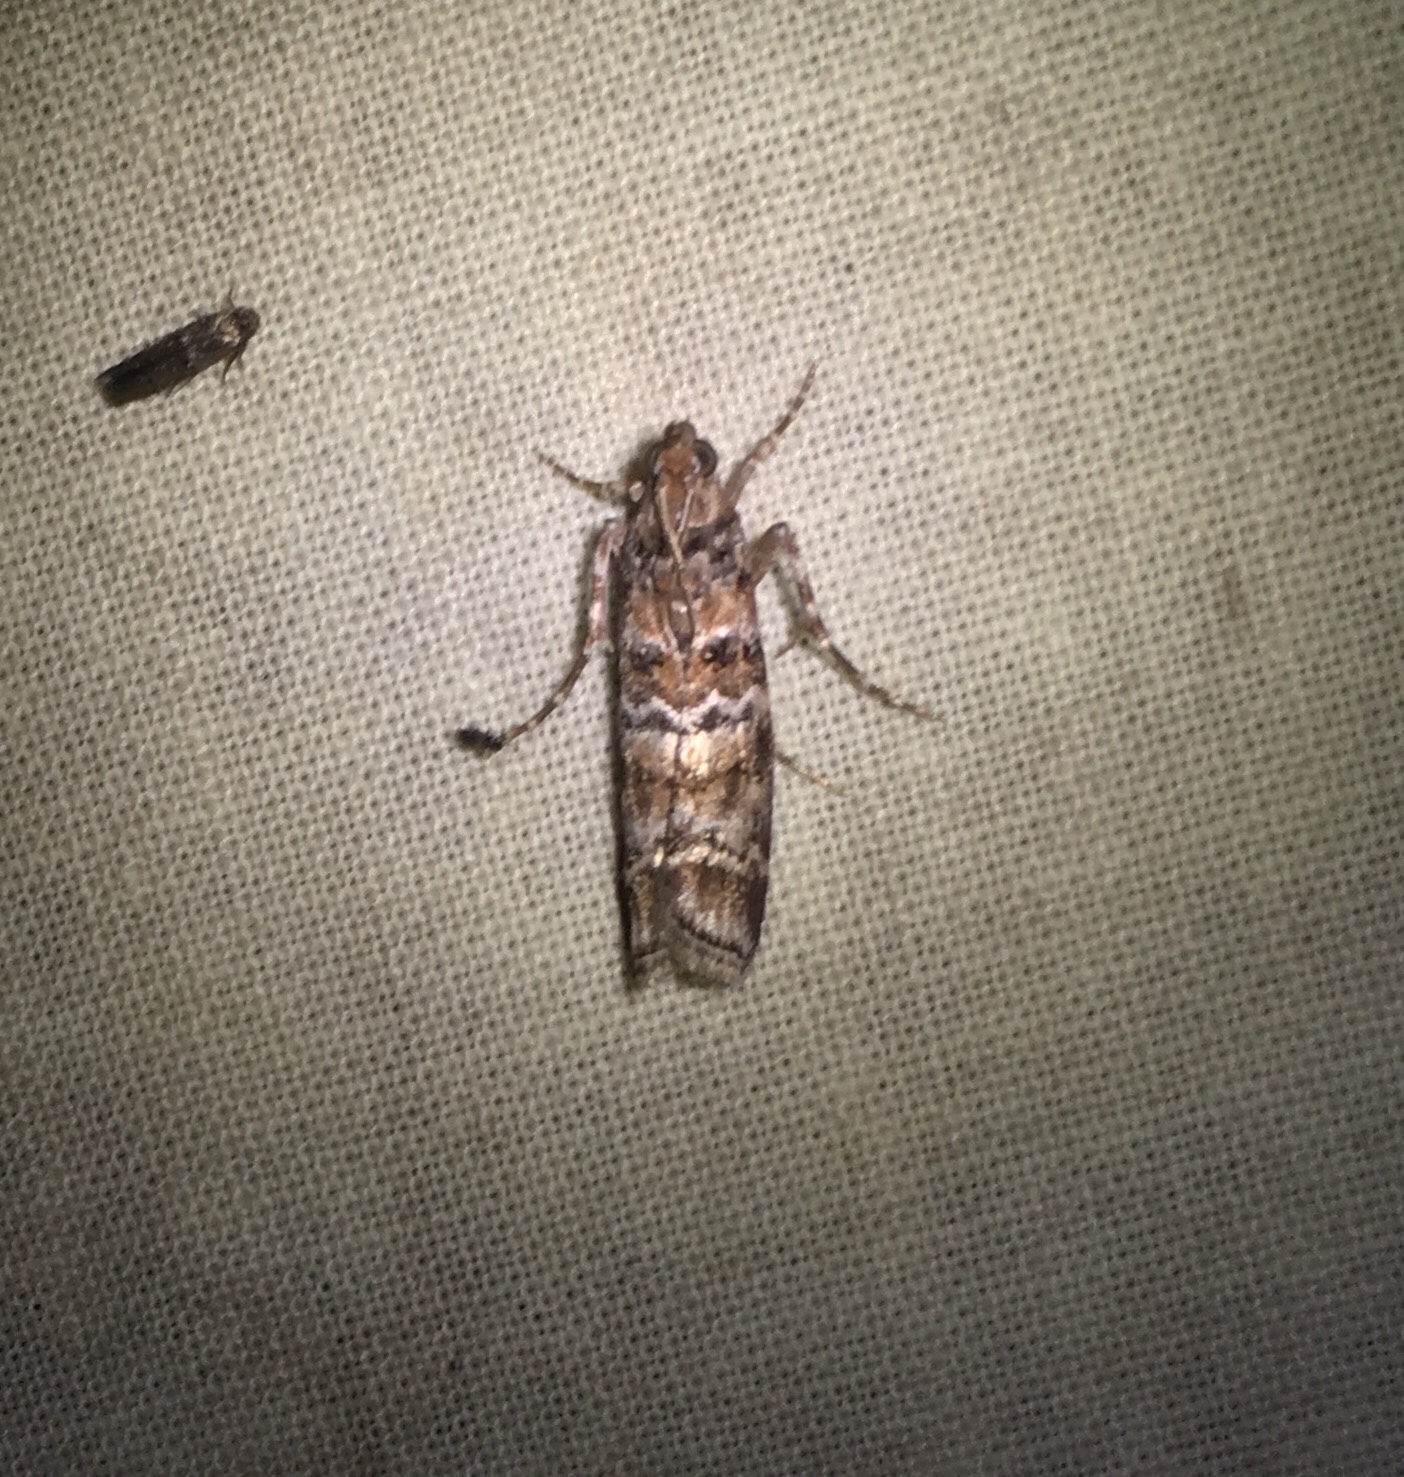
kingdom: Animalia
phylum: Arthropoda
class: Insecta
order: Lepidoptera
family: Pyralidae
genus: Dioryctria
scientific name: Dioryctria amatella
